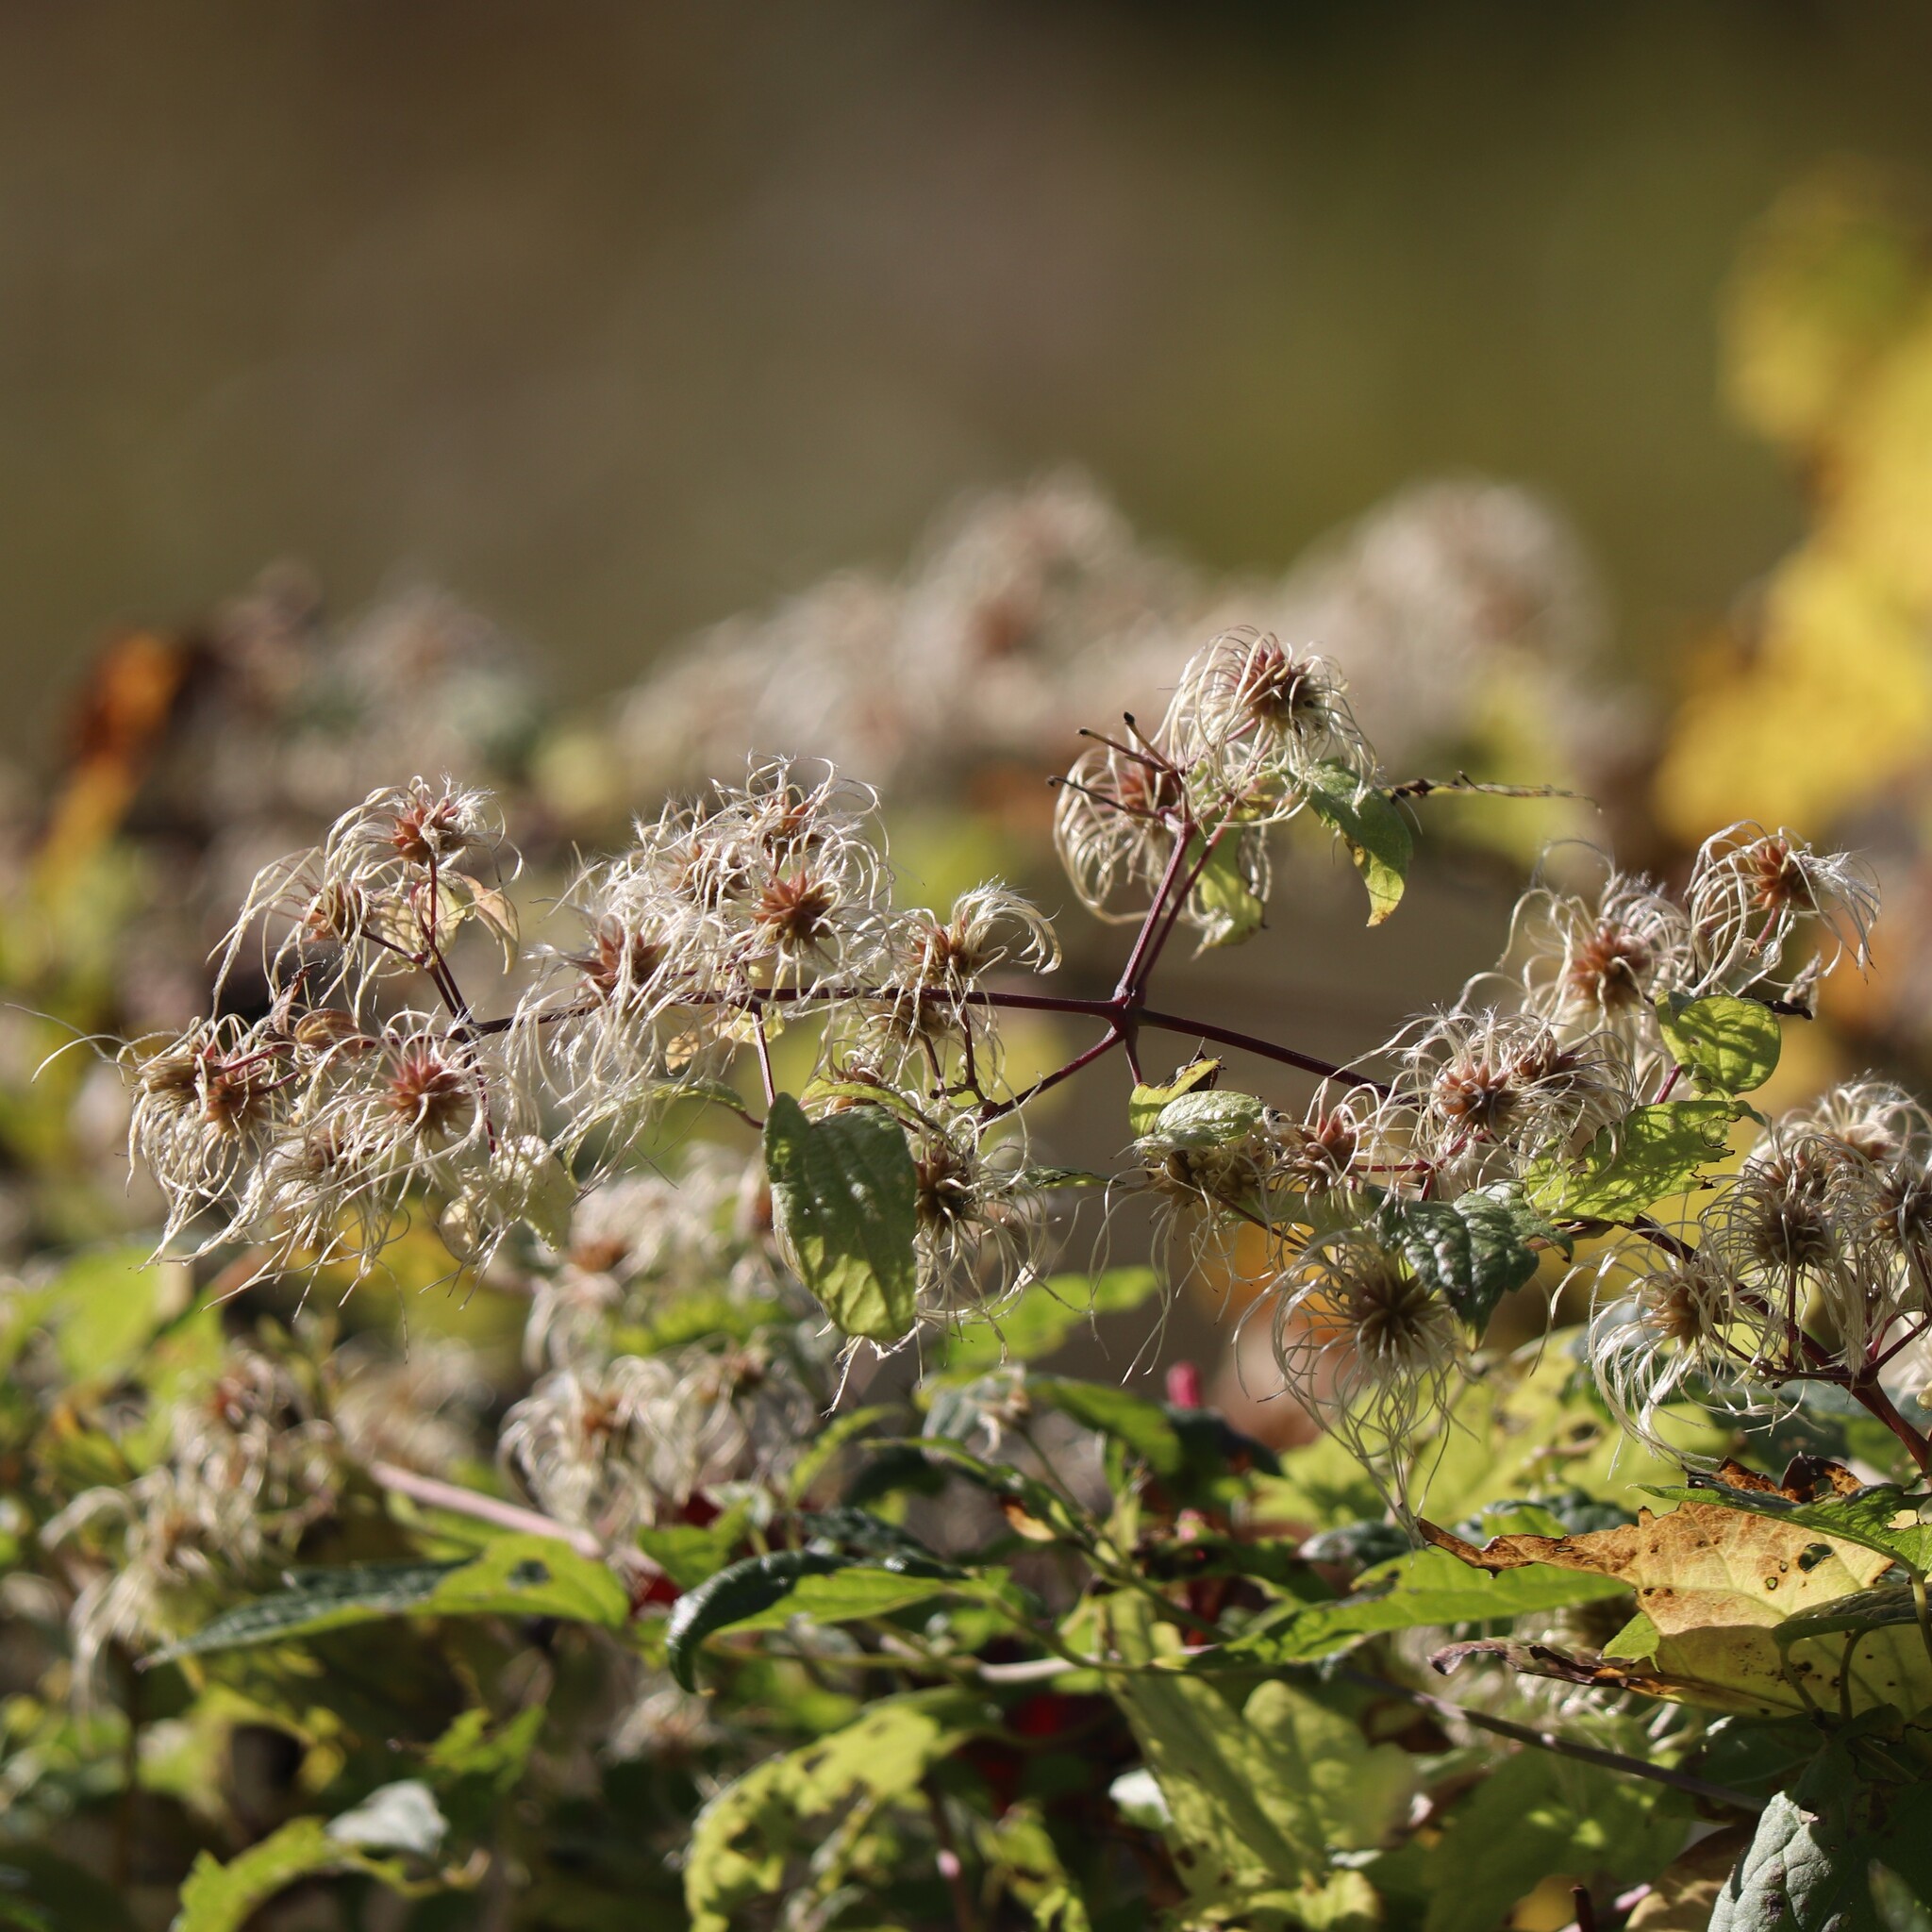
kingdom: Plantae
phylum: Tracheophyta
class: Magnoliopsida
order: Ranunculales
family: Ranunculaceae
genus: Clematis
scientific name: Clematis virginiana
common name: Virgin's-bower
